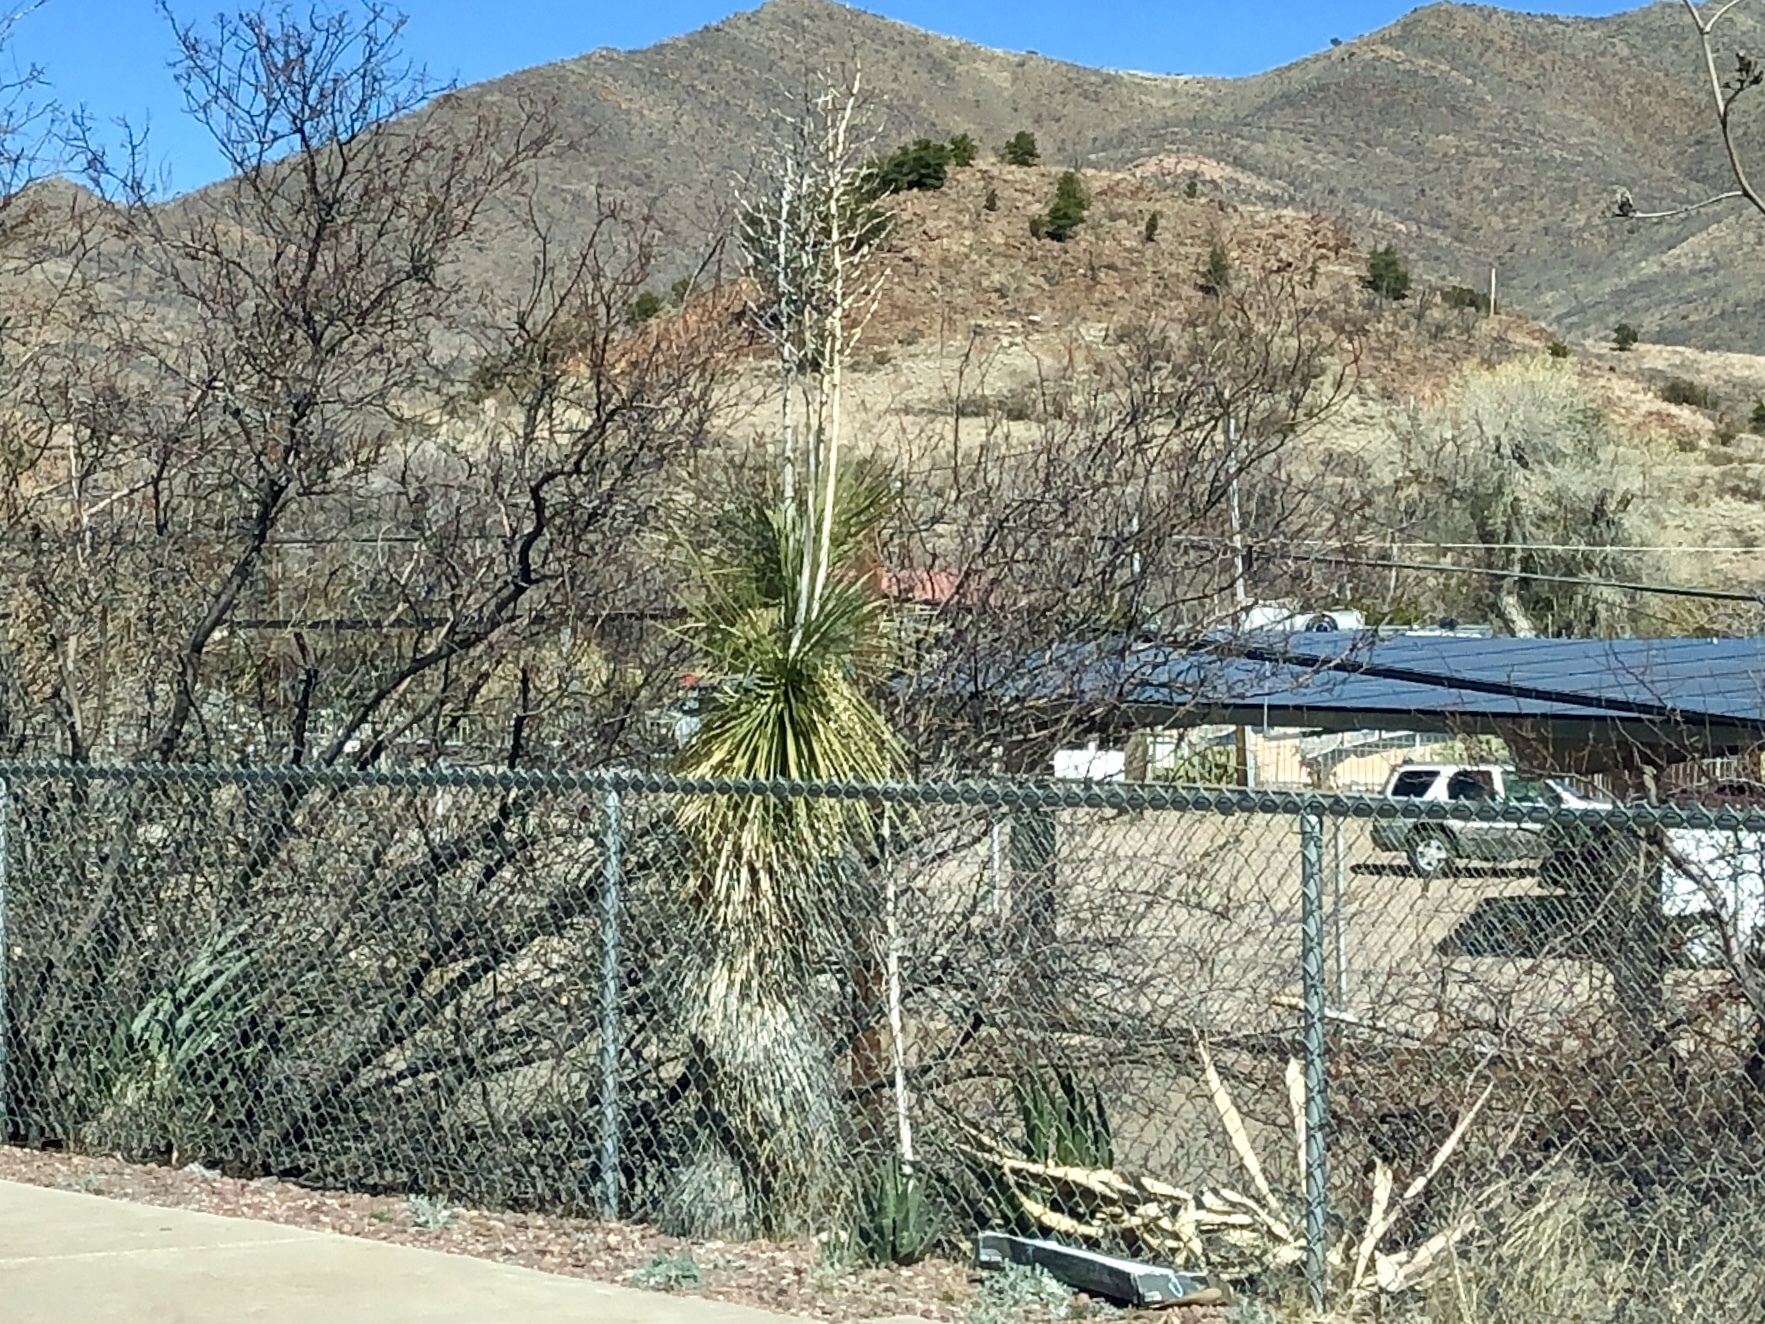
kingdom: Plantae
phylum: Tracheophyta
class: Liliopsida
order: Asparagales
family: Asparagaceae
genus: Yucca
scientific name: Yucca elata
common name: Palmella
